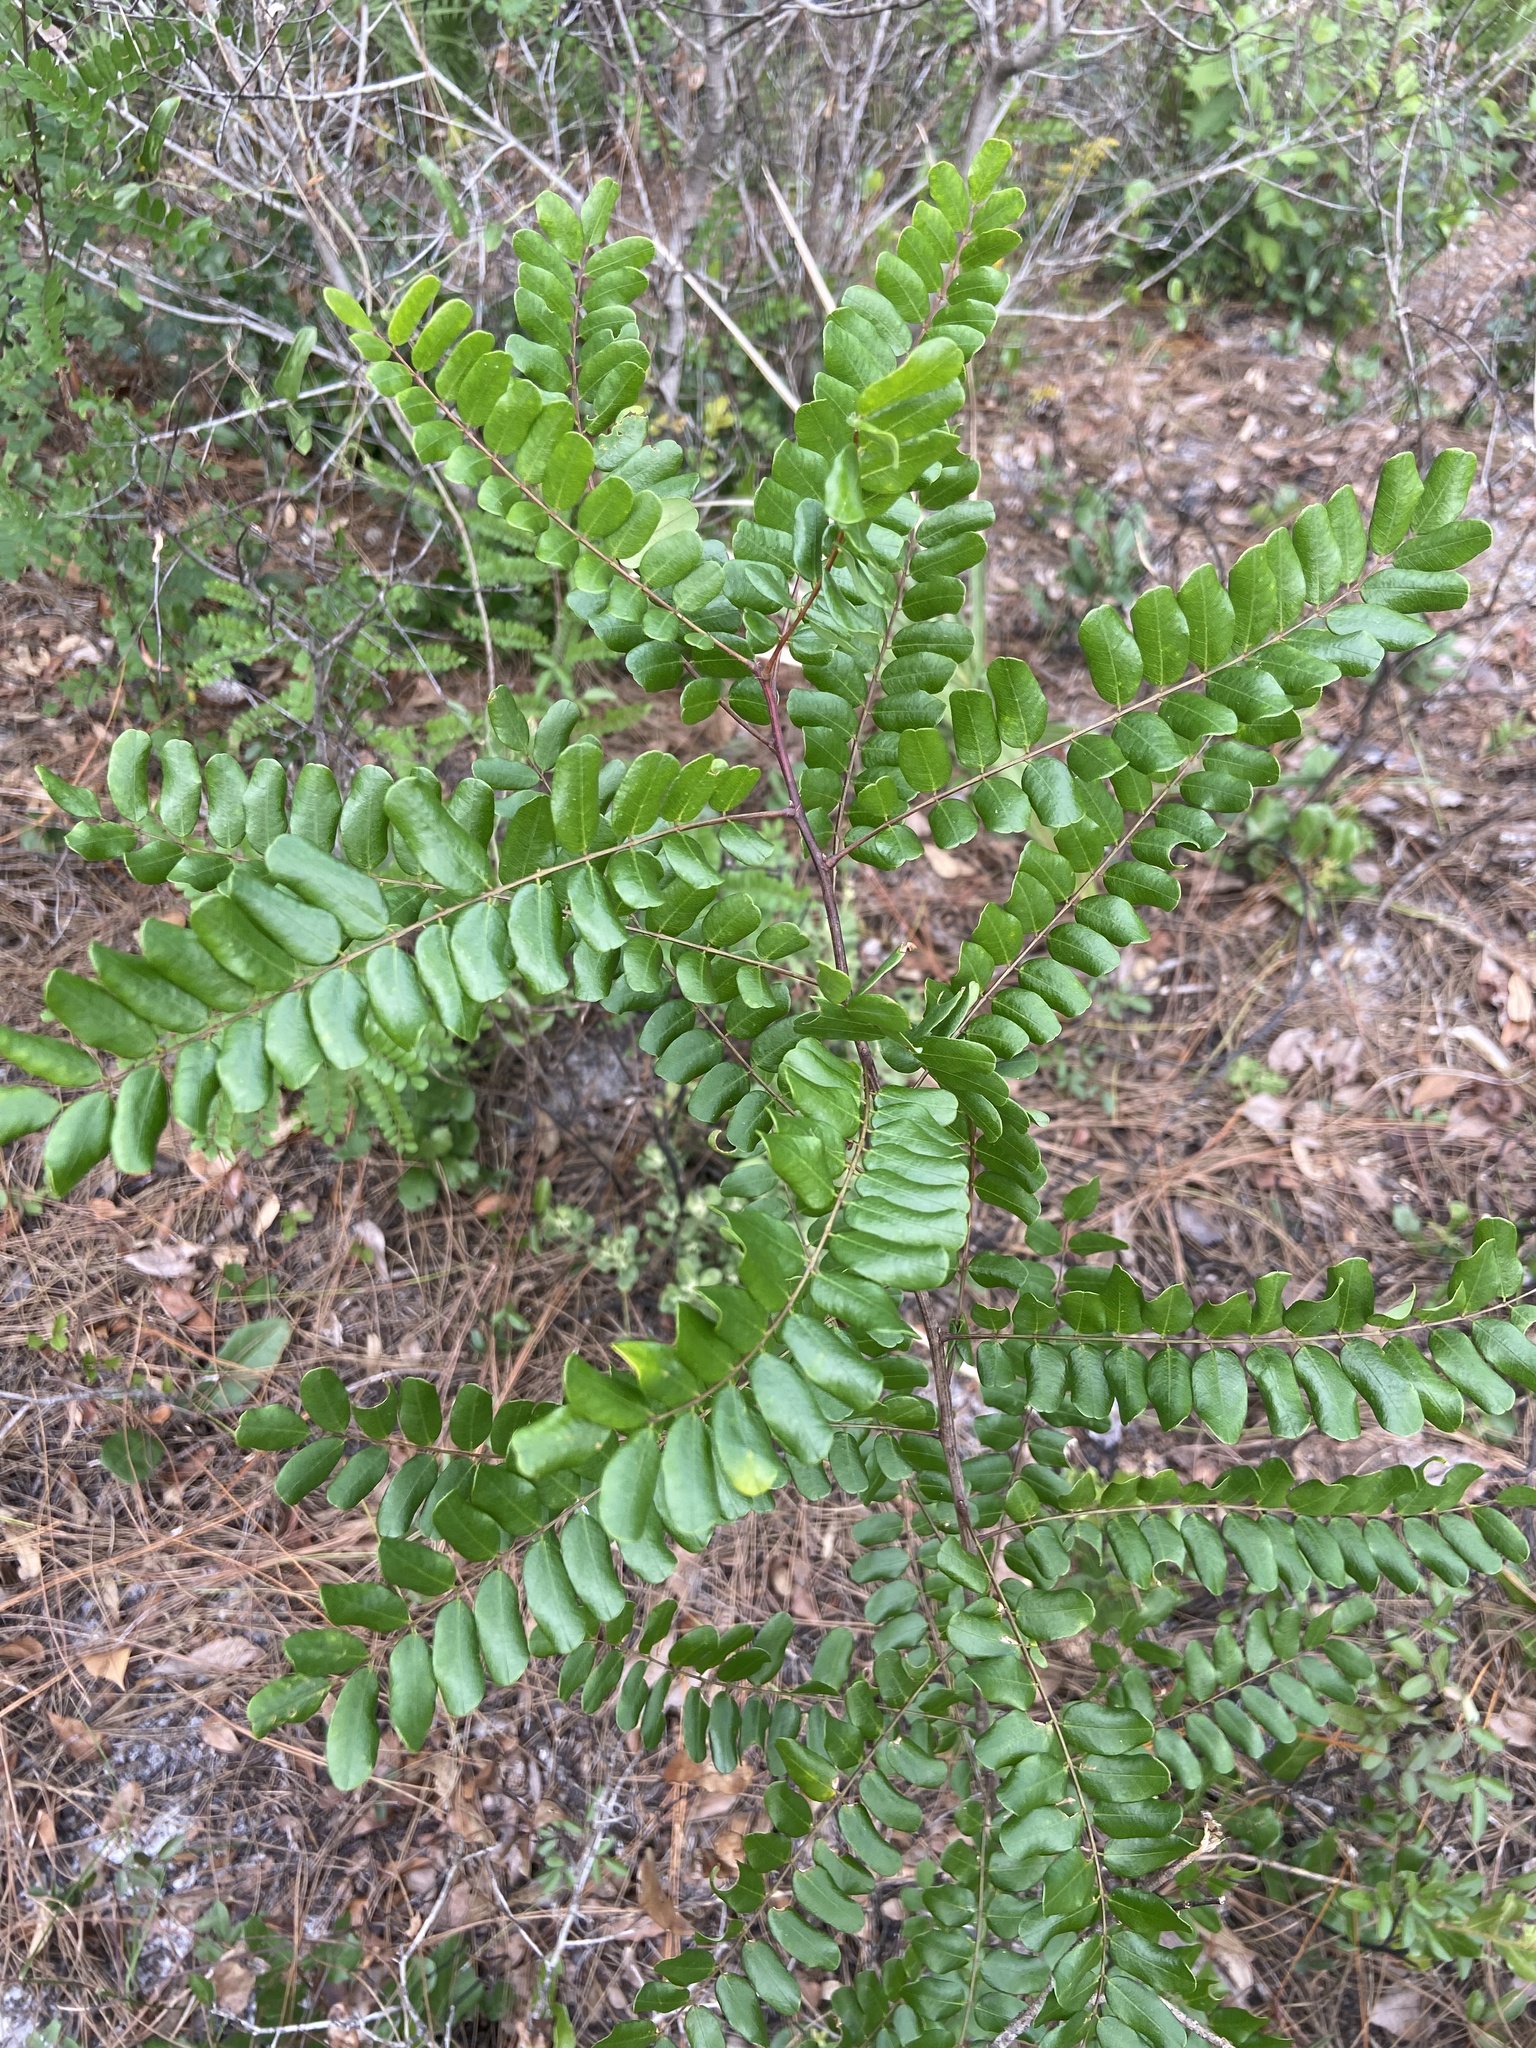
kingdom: Plantae
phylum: Tracheophyta
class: Magnoliopsida
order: Fabales
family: Fabaceae
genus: Amorpha
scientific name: Amorpha herbacea
